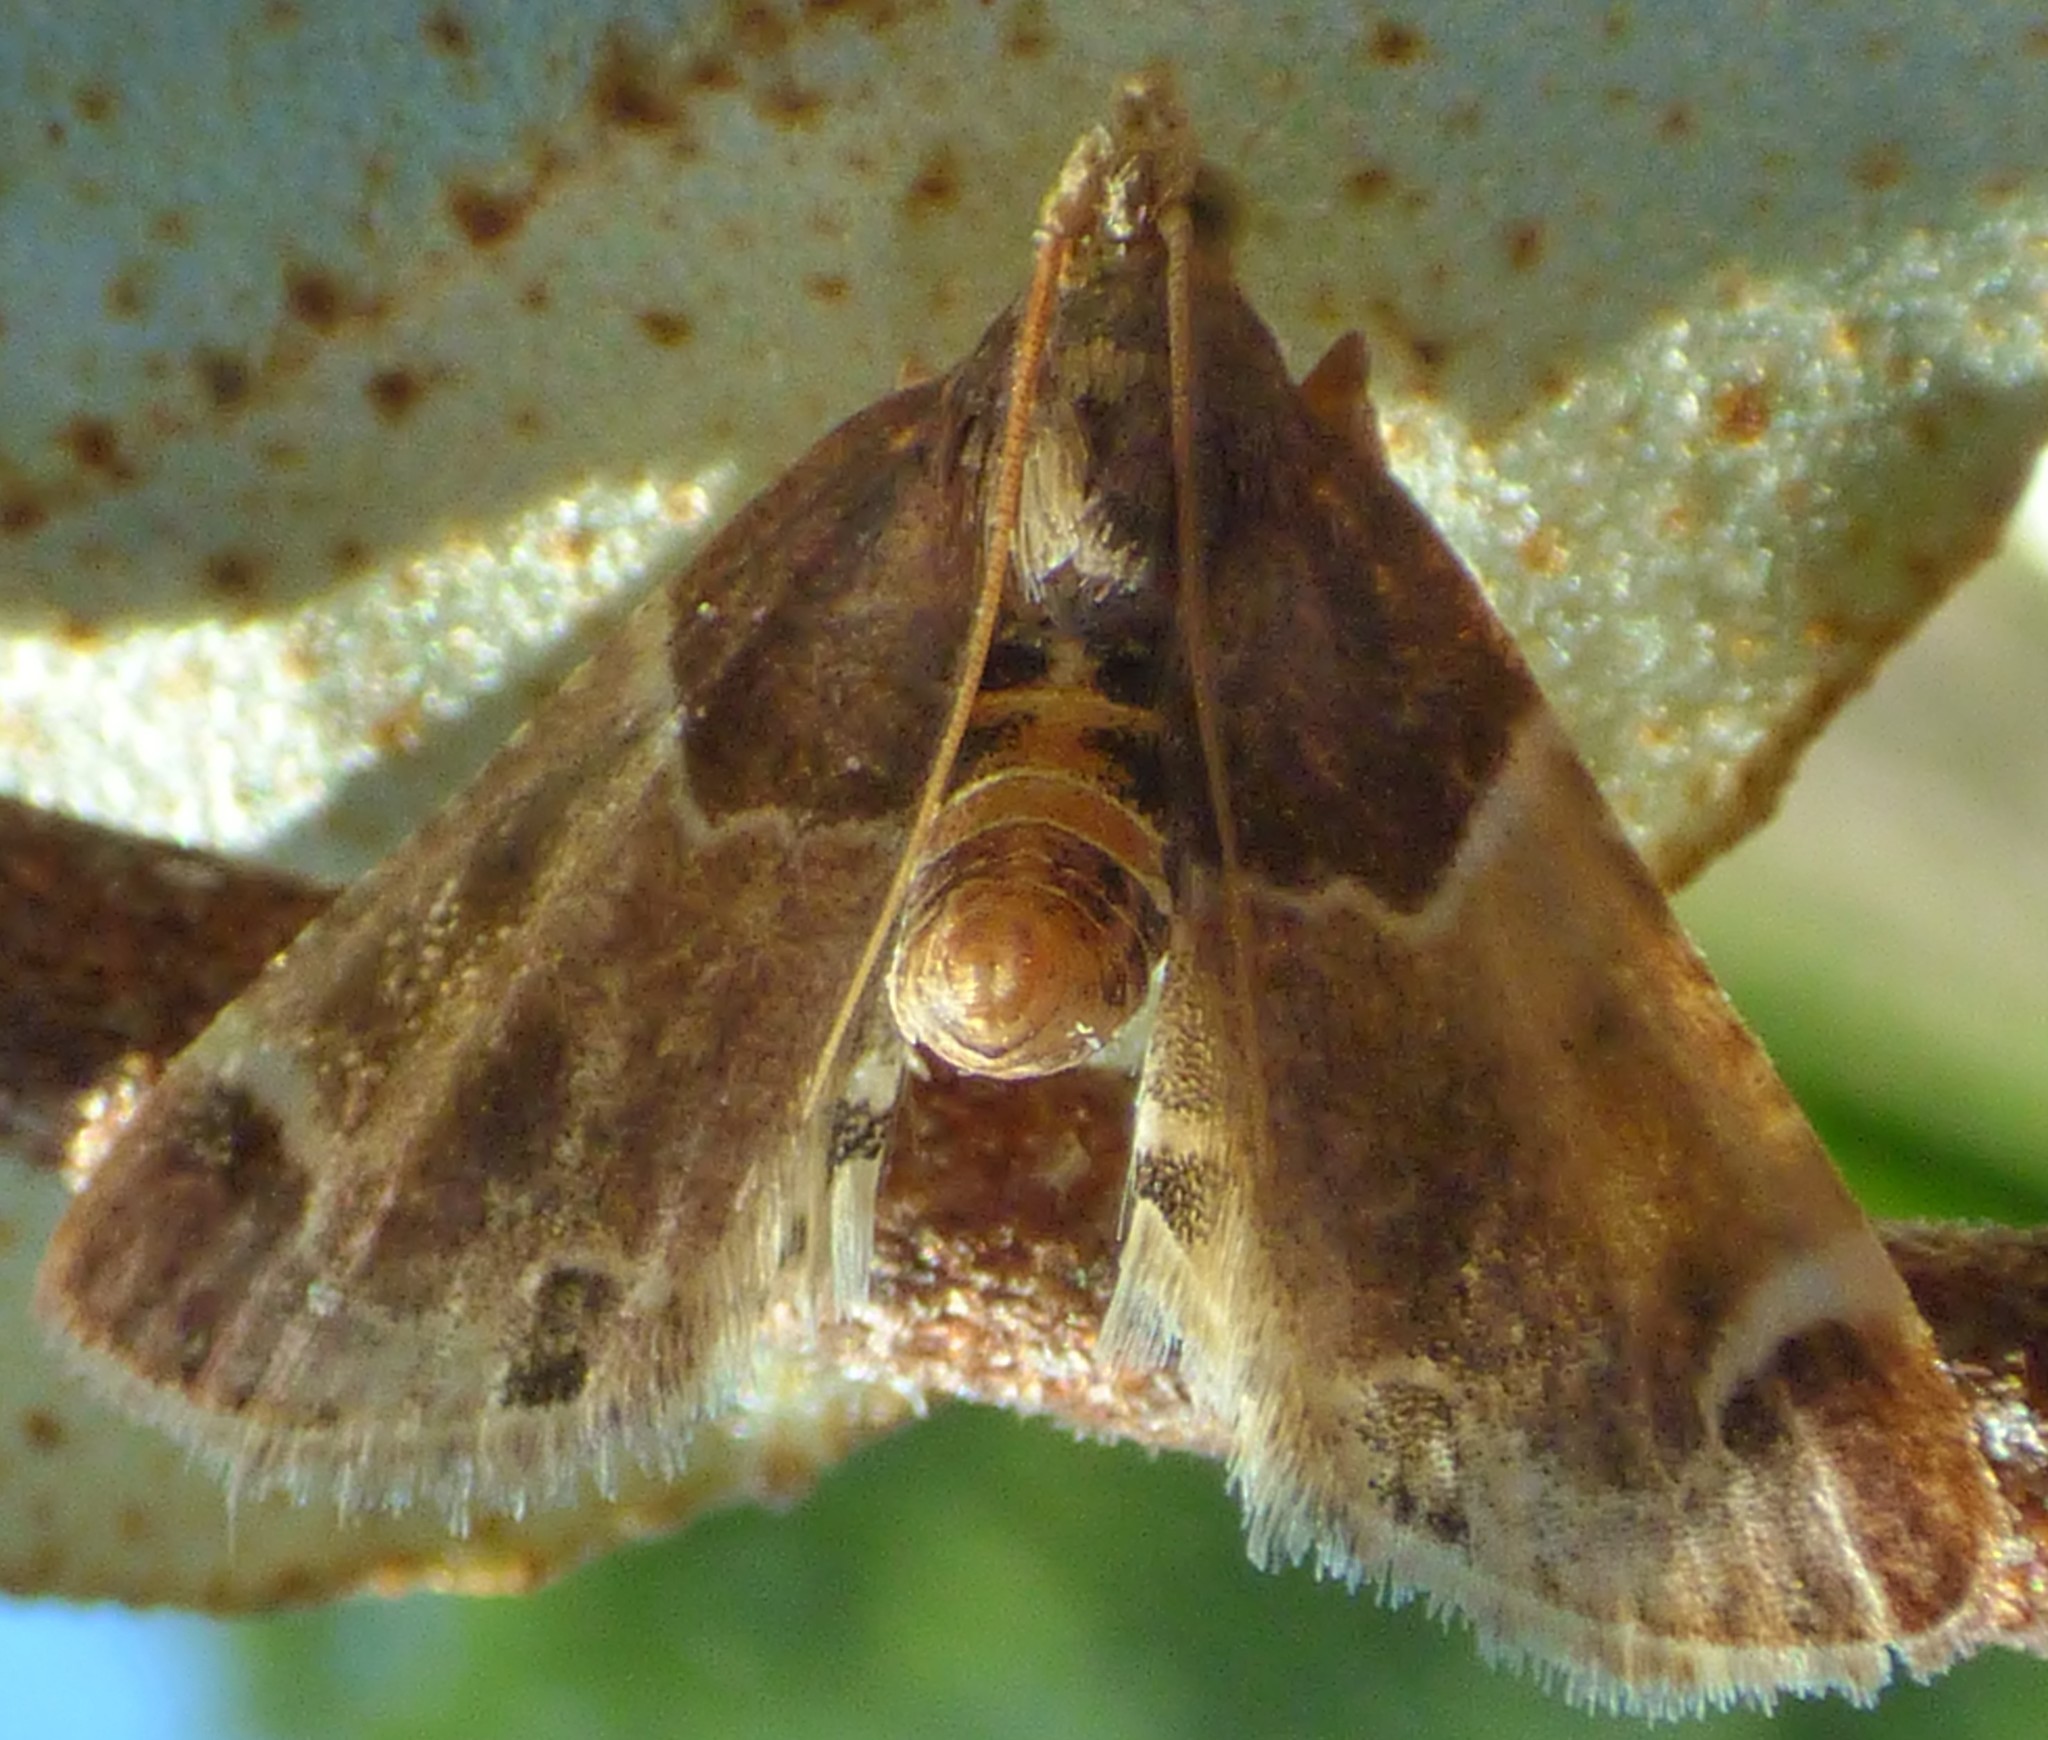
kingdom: Animalia
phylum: Arthropoda
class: Insecta
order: Lepidoptera
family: Pyralidae
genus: Pyralis
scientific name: Pyralis farinalis
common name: Meal moth
